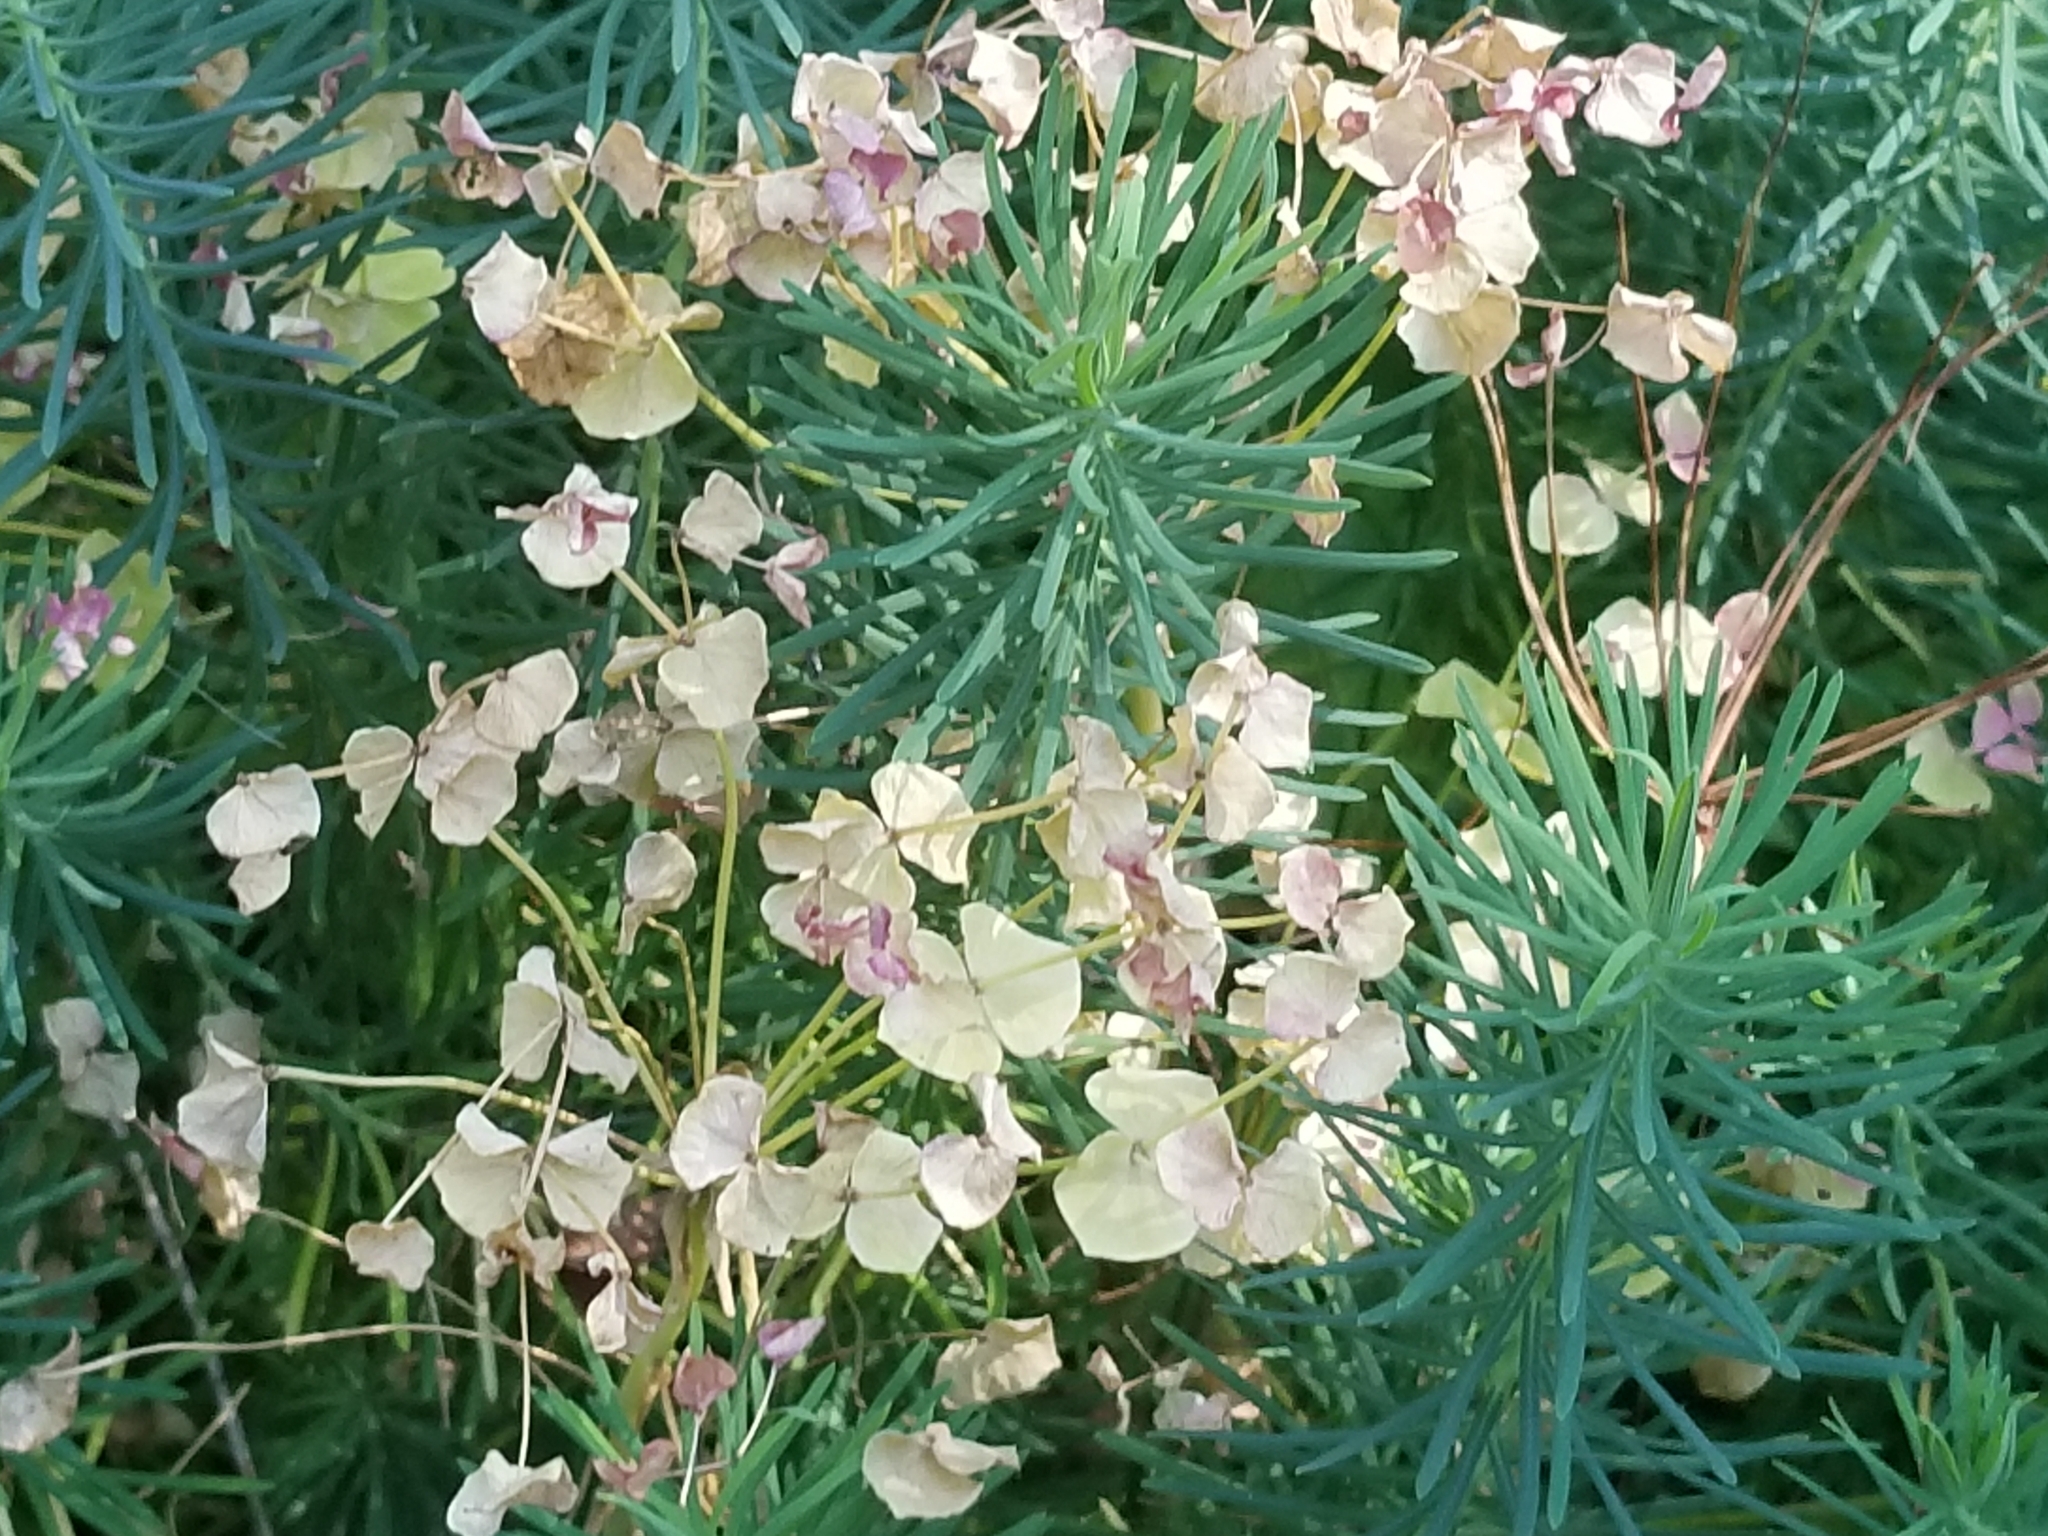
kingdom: Plantae
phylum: Tracheophyta
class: Magnoliopsida
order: Malpighiales
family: Euphorbiaceae
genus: Euphorbia
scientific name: Euphorbia cyparissias
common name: Cypress spurge
